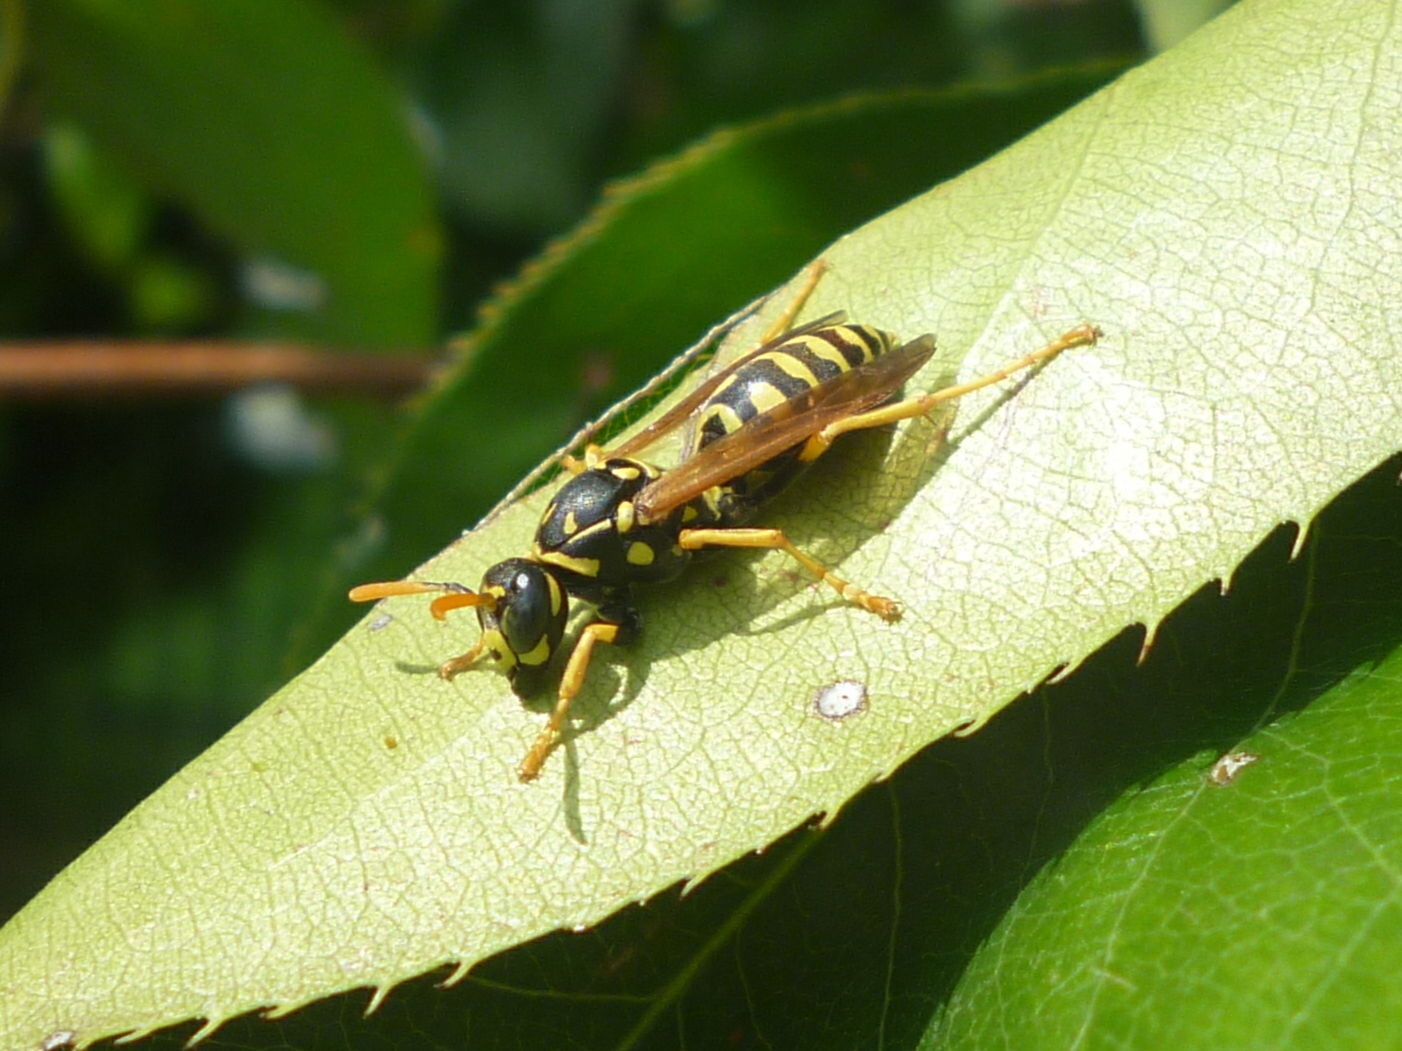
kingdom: Animalia
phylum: Arthropoda
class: Insecta
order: Hymenoptera
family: Eumenidae
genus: Polistes
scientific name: Polistes dominula
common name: Paper wasp
